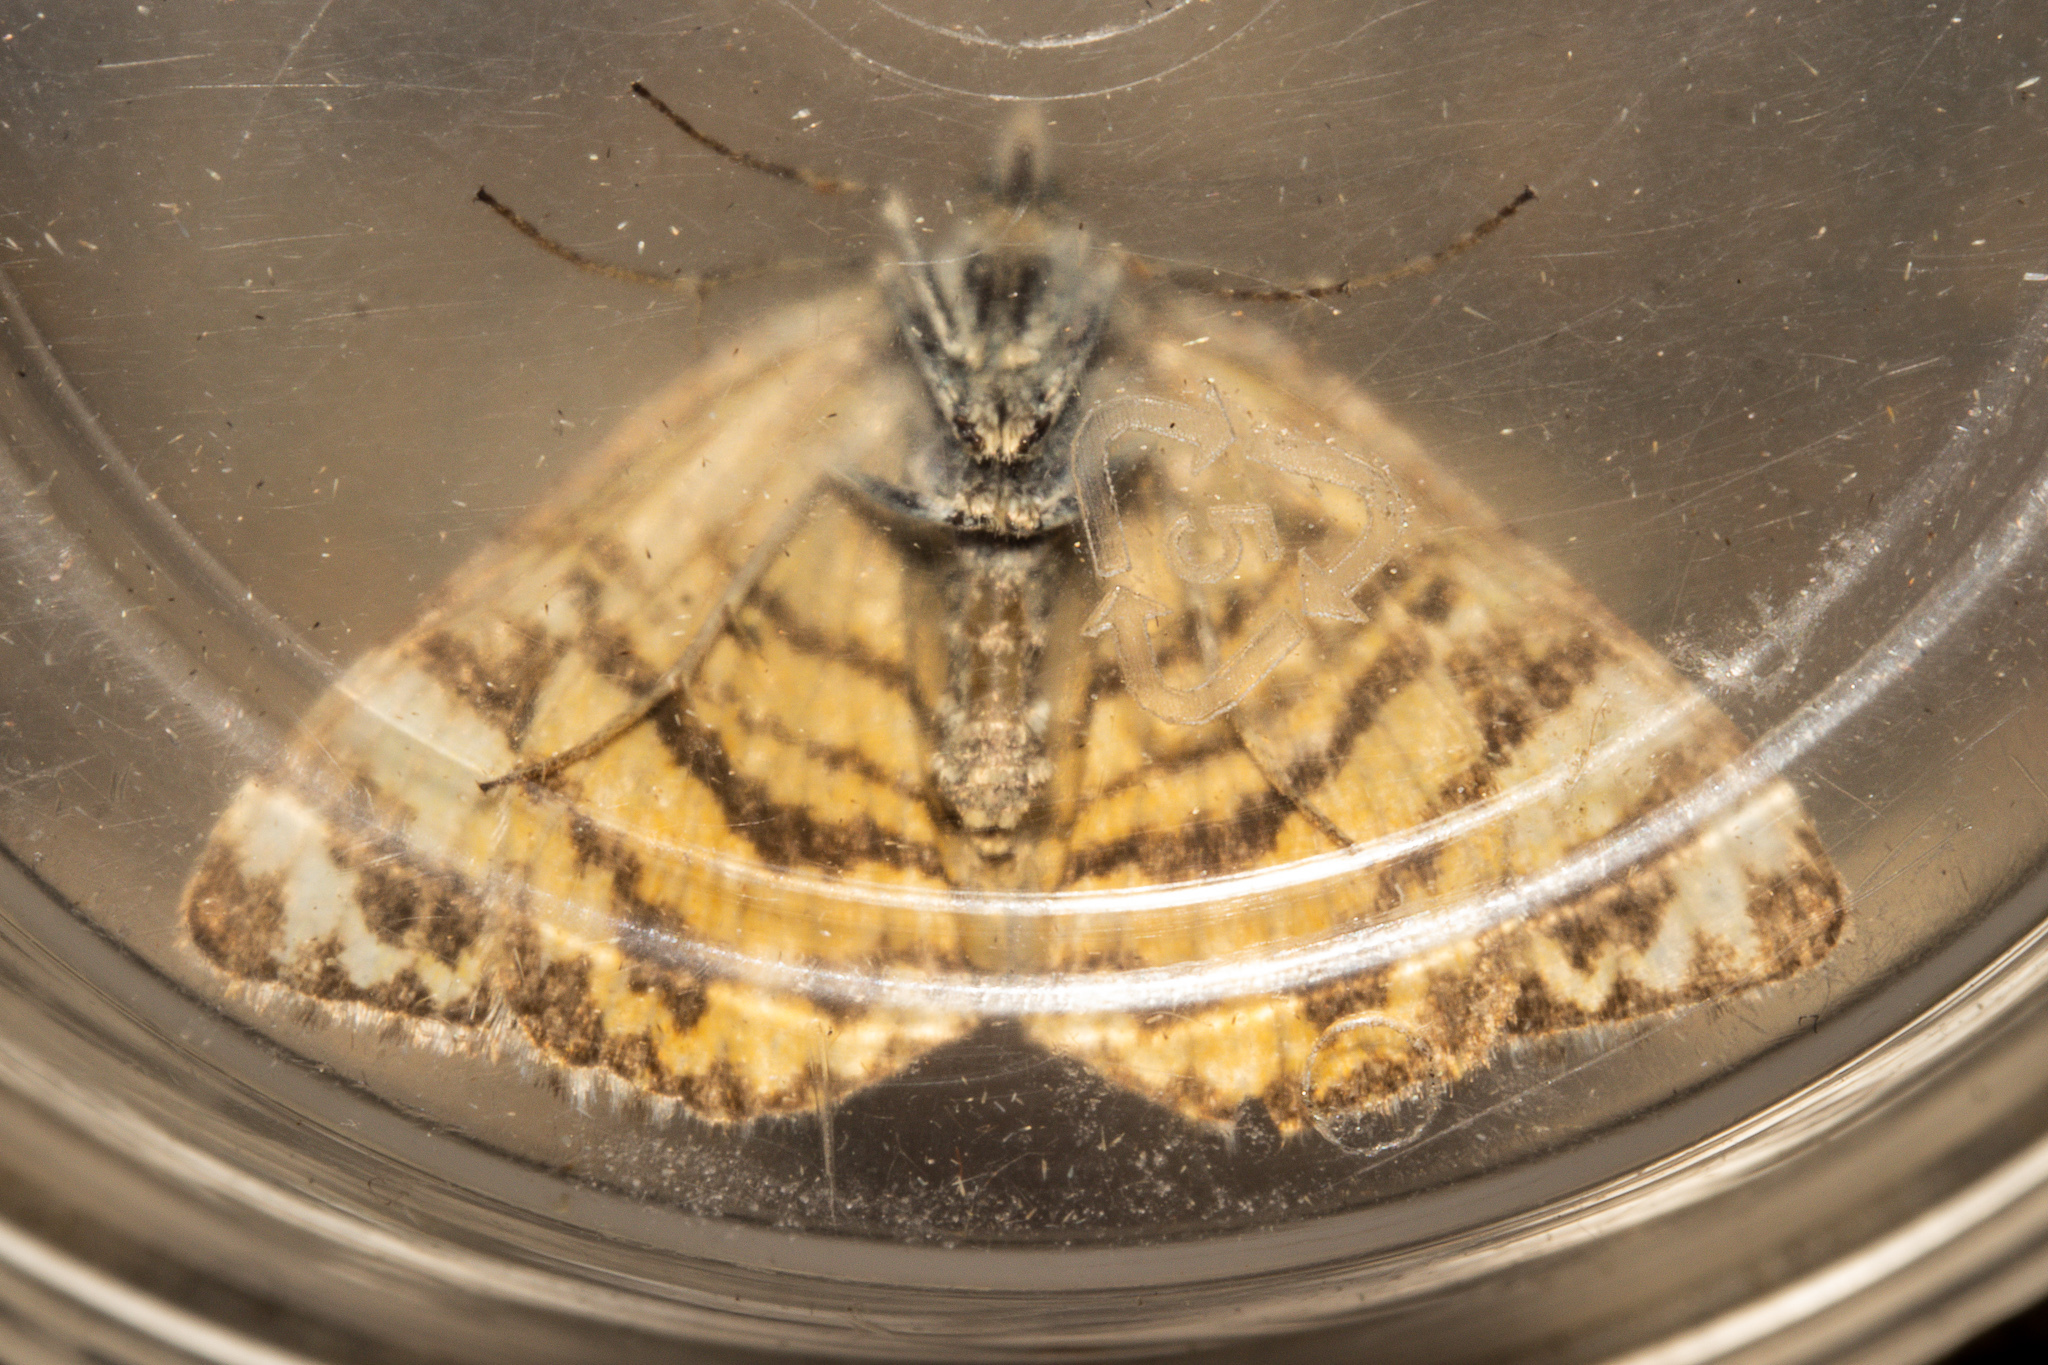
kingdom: Animalia
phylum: Arthropoda
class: Insecta
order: Lepidoptera
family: Geometridae
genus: Dasyuris
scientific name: Dasyuris anceps
